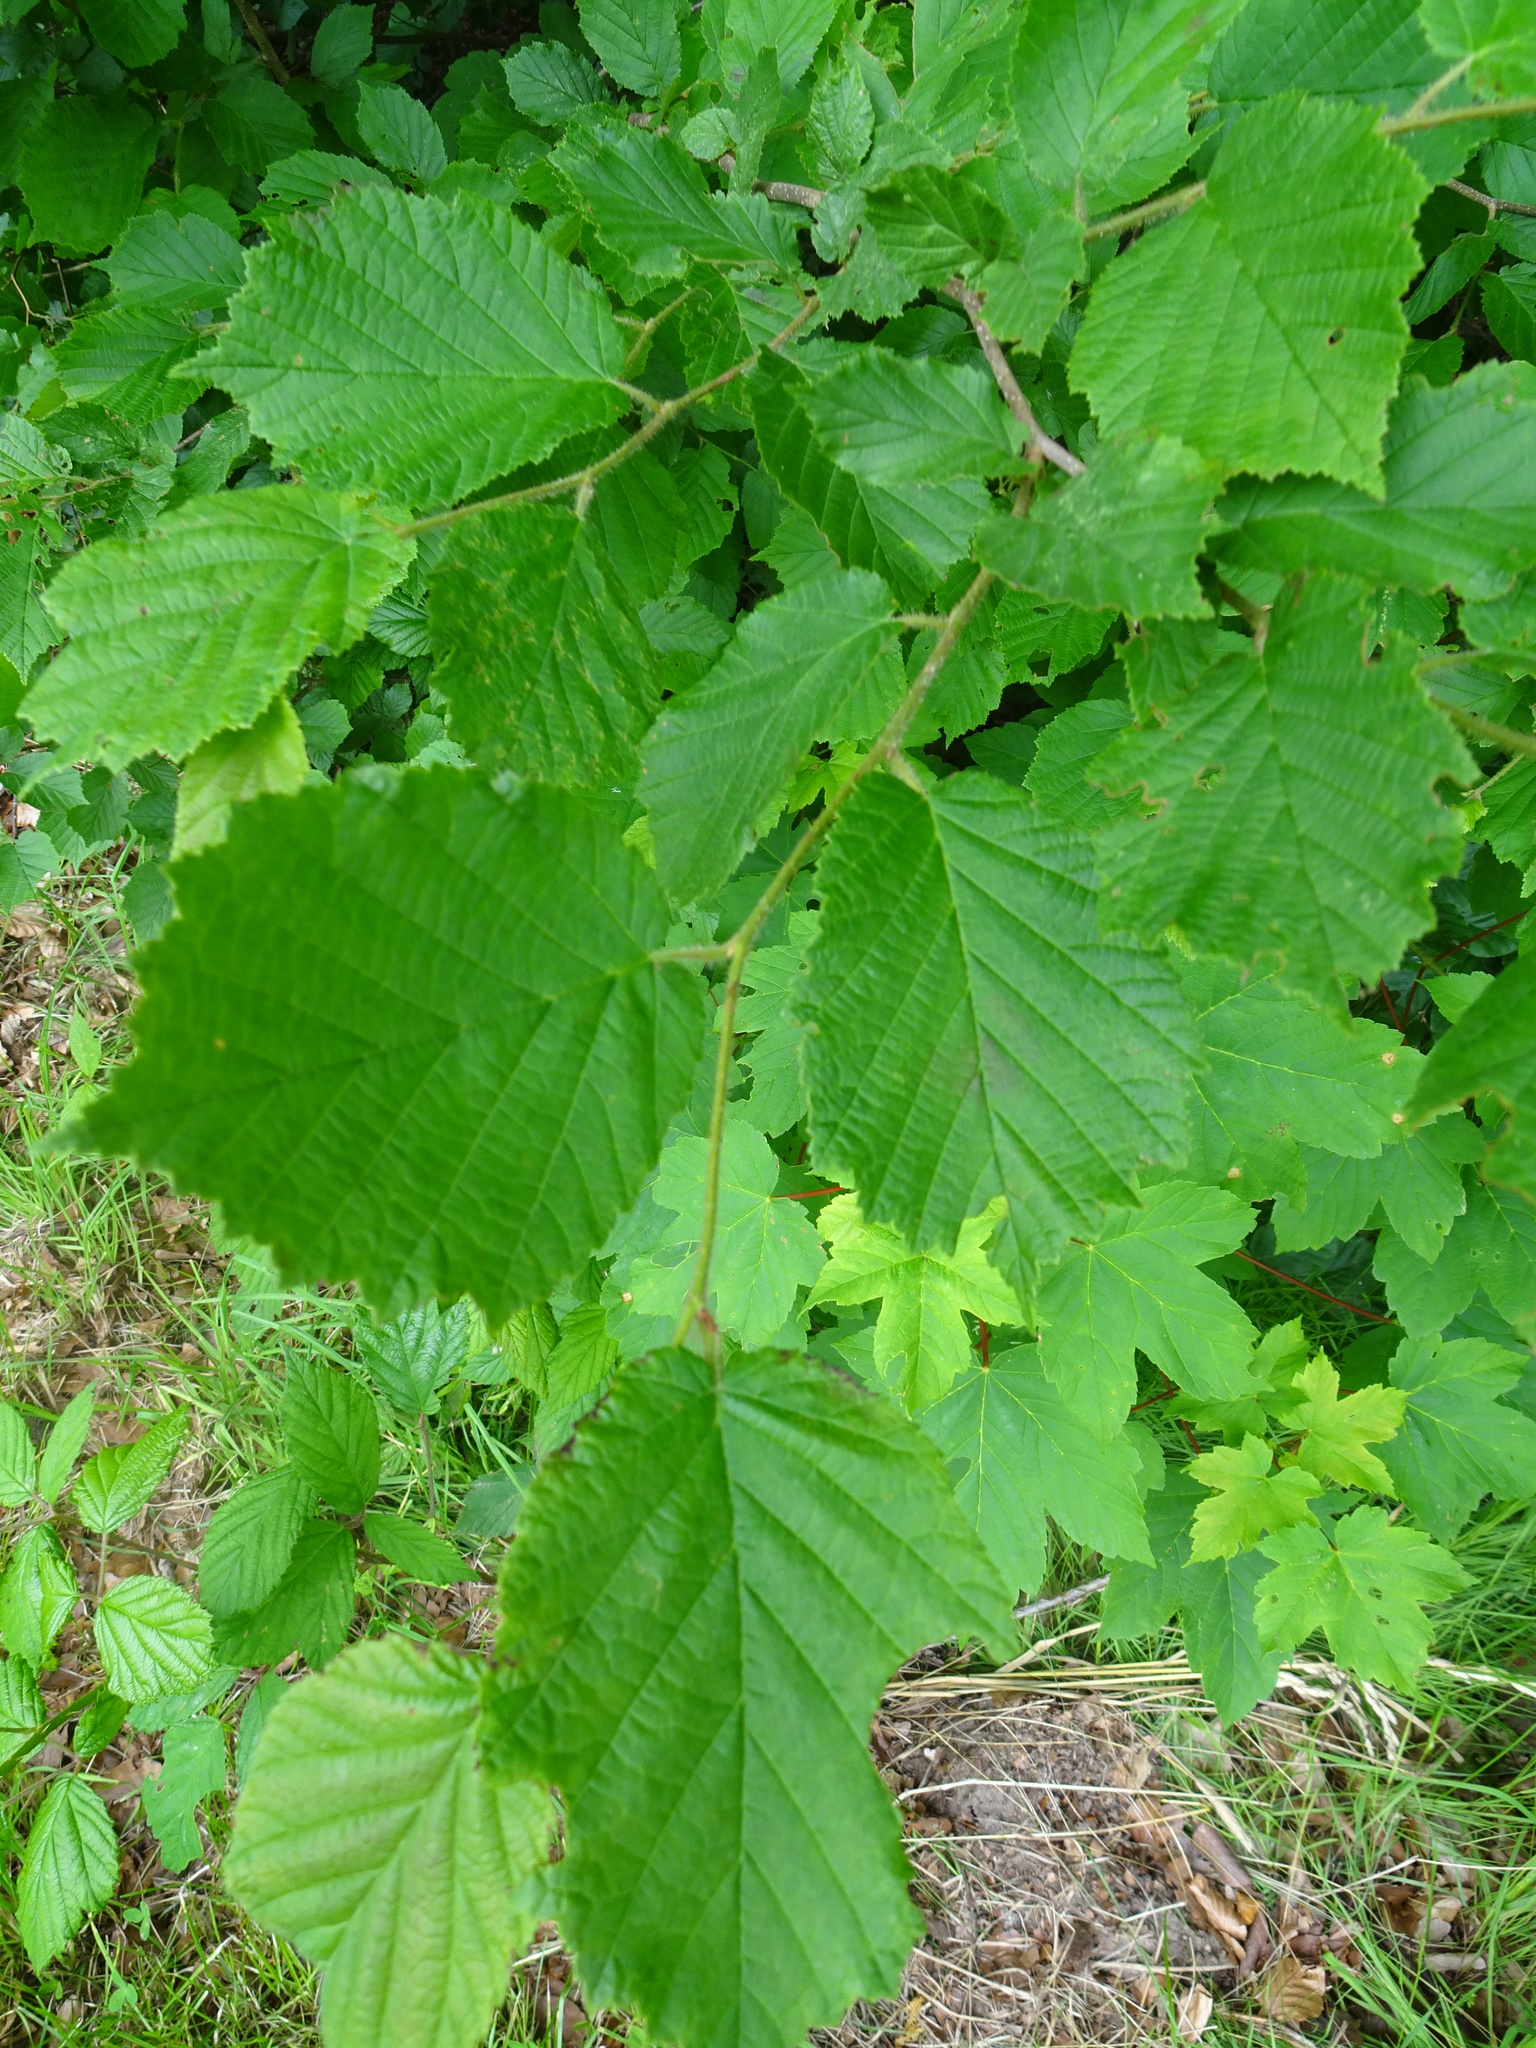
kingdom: Plantae
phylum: Tracheophyta
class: Magnoliopsida
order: Fagales
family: Betulaceae
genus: Corylus
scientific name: Corylus avellana
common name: European hazel
